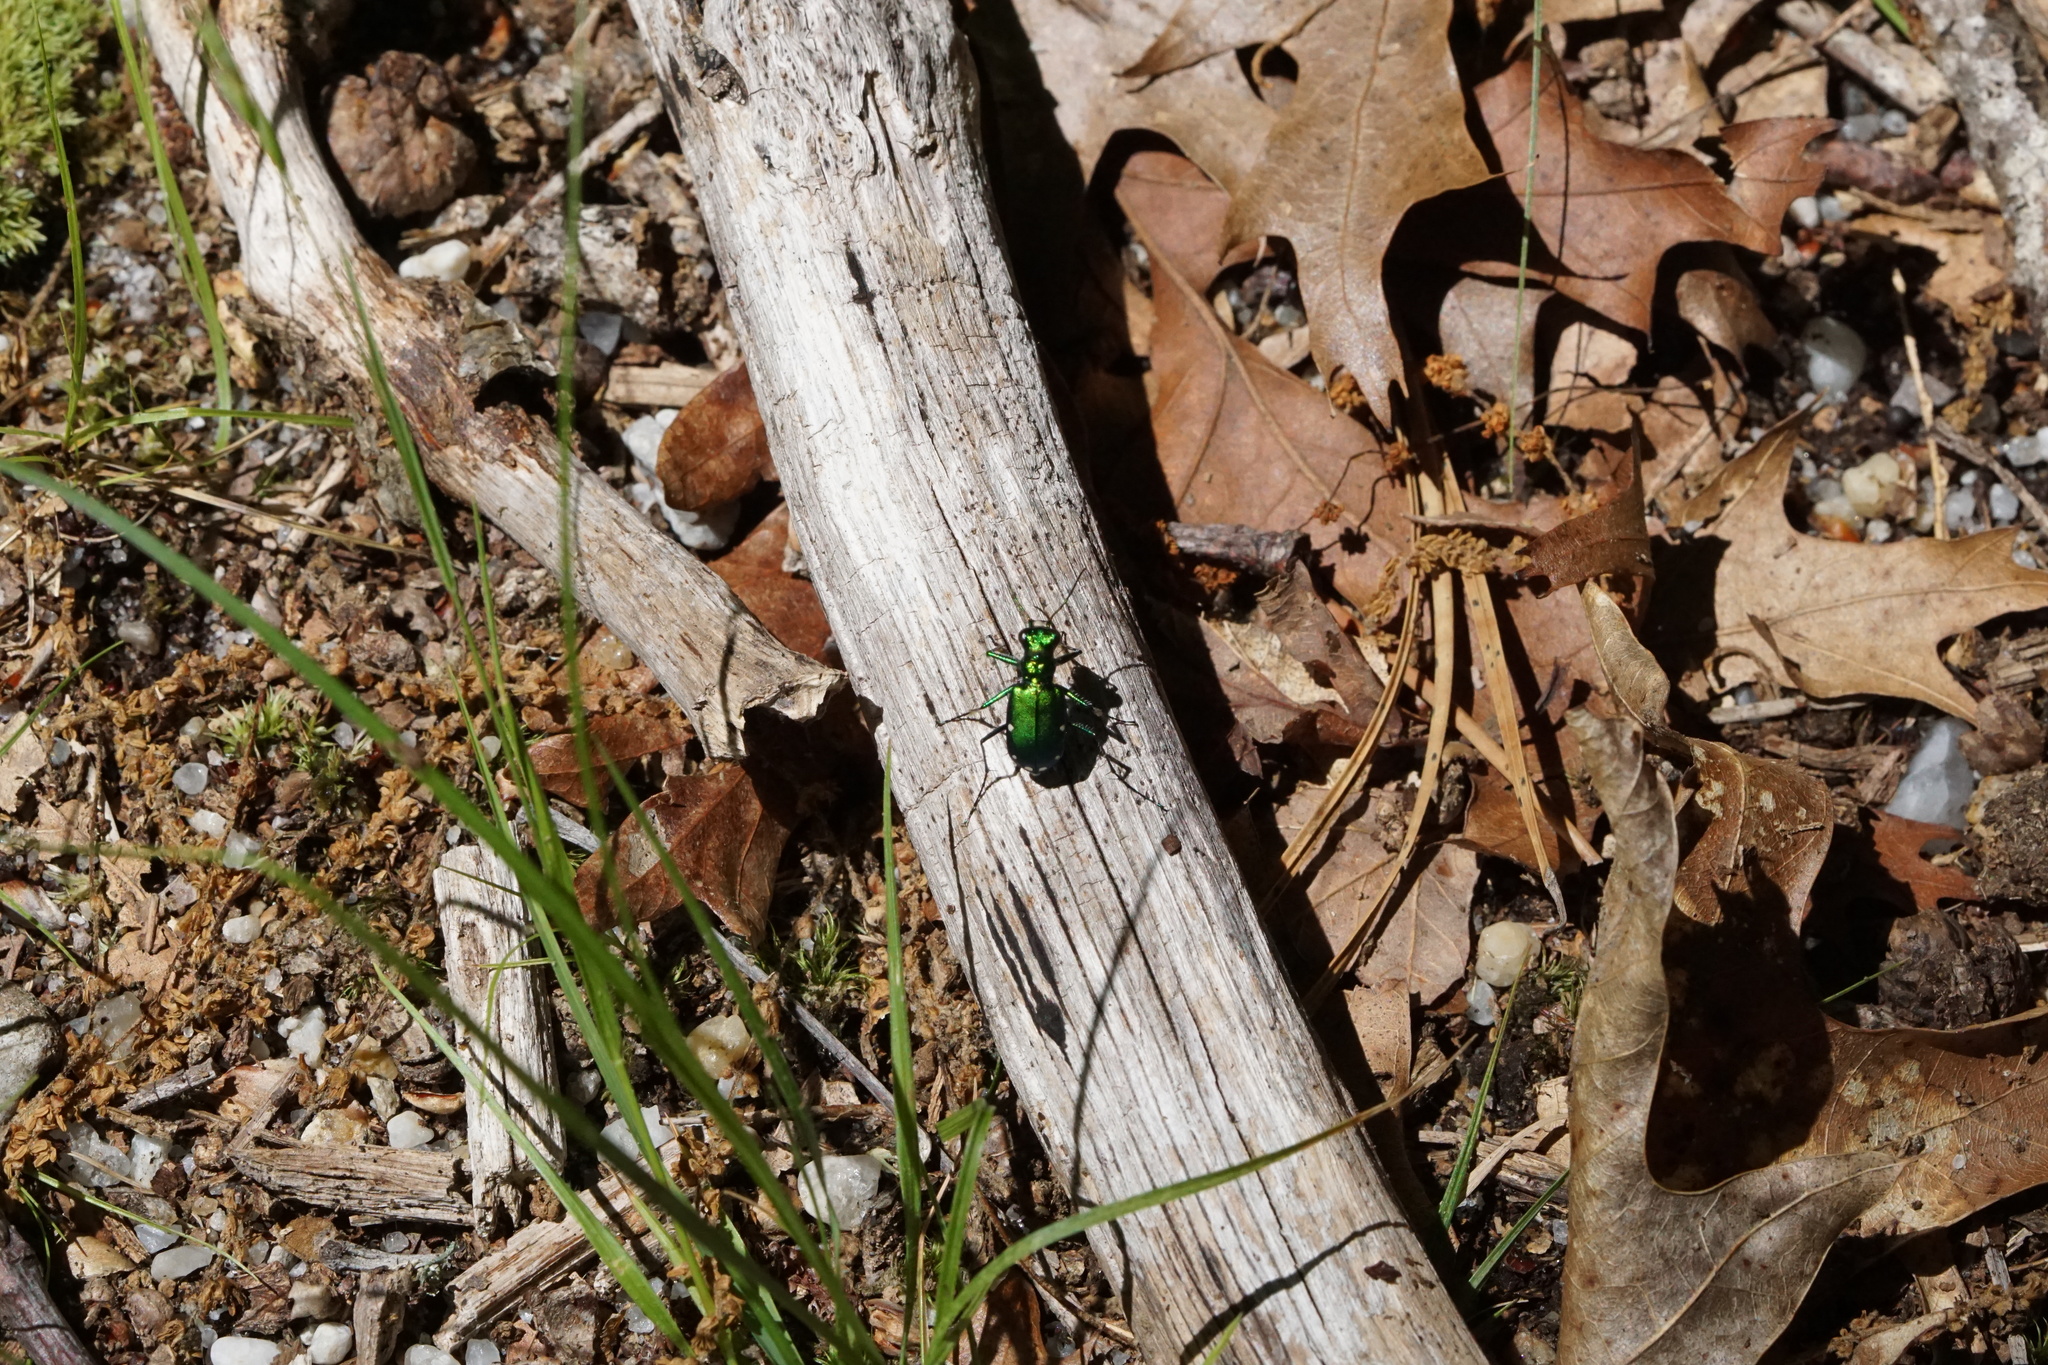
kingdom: Animalia
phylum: Arthropoda
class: Insecta
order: Coleoptera
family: Carabidae
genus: Cicindela
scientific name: Cicindela sexguttata
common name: Six-spotted tiger beetle
